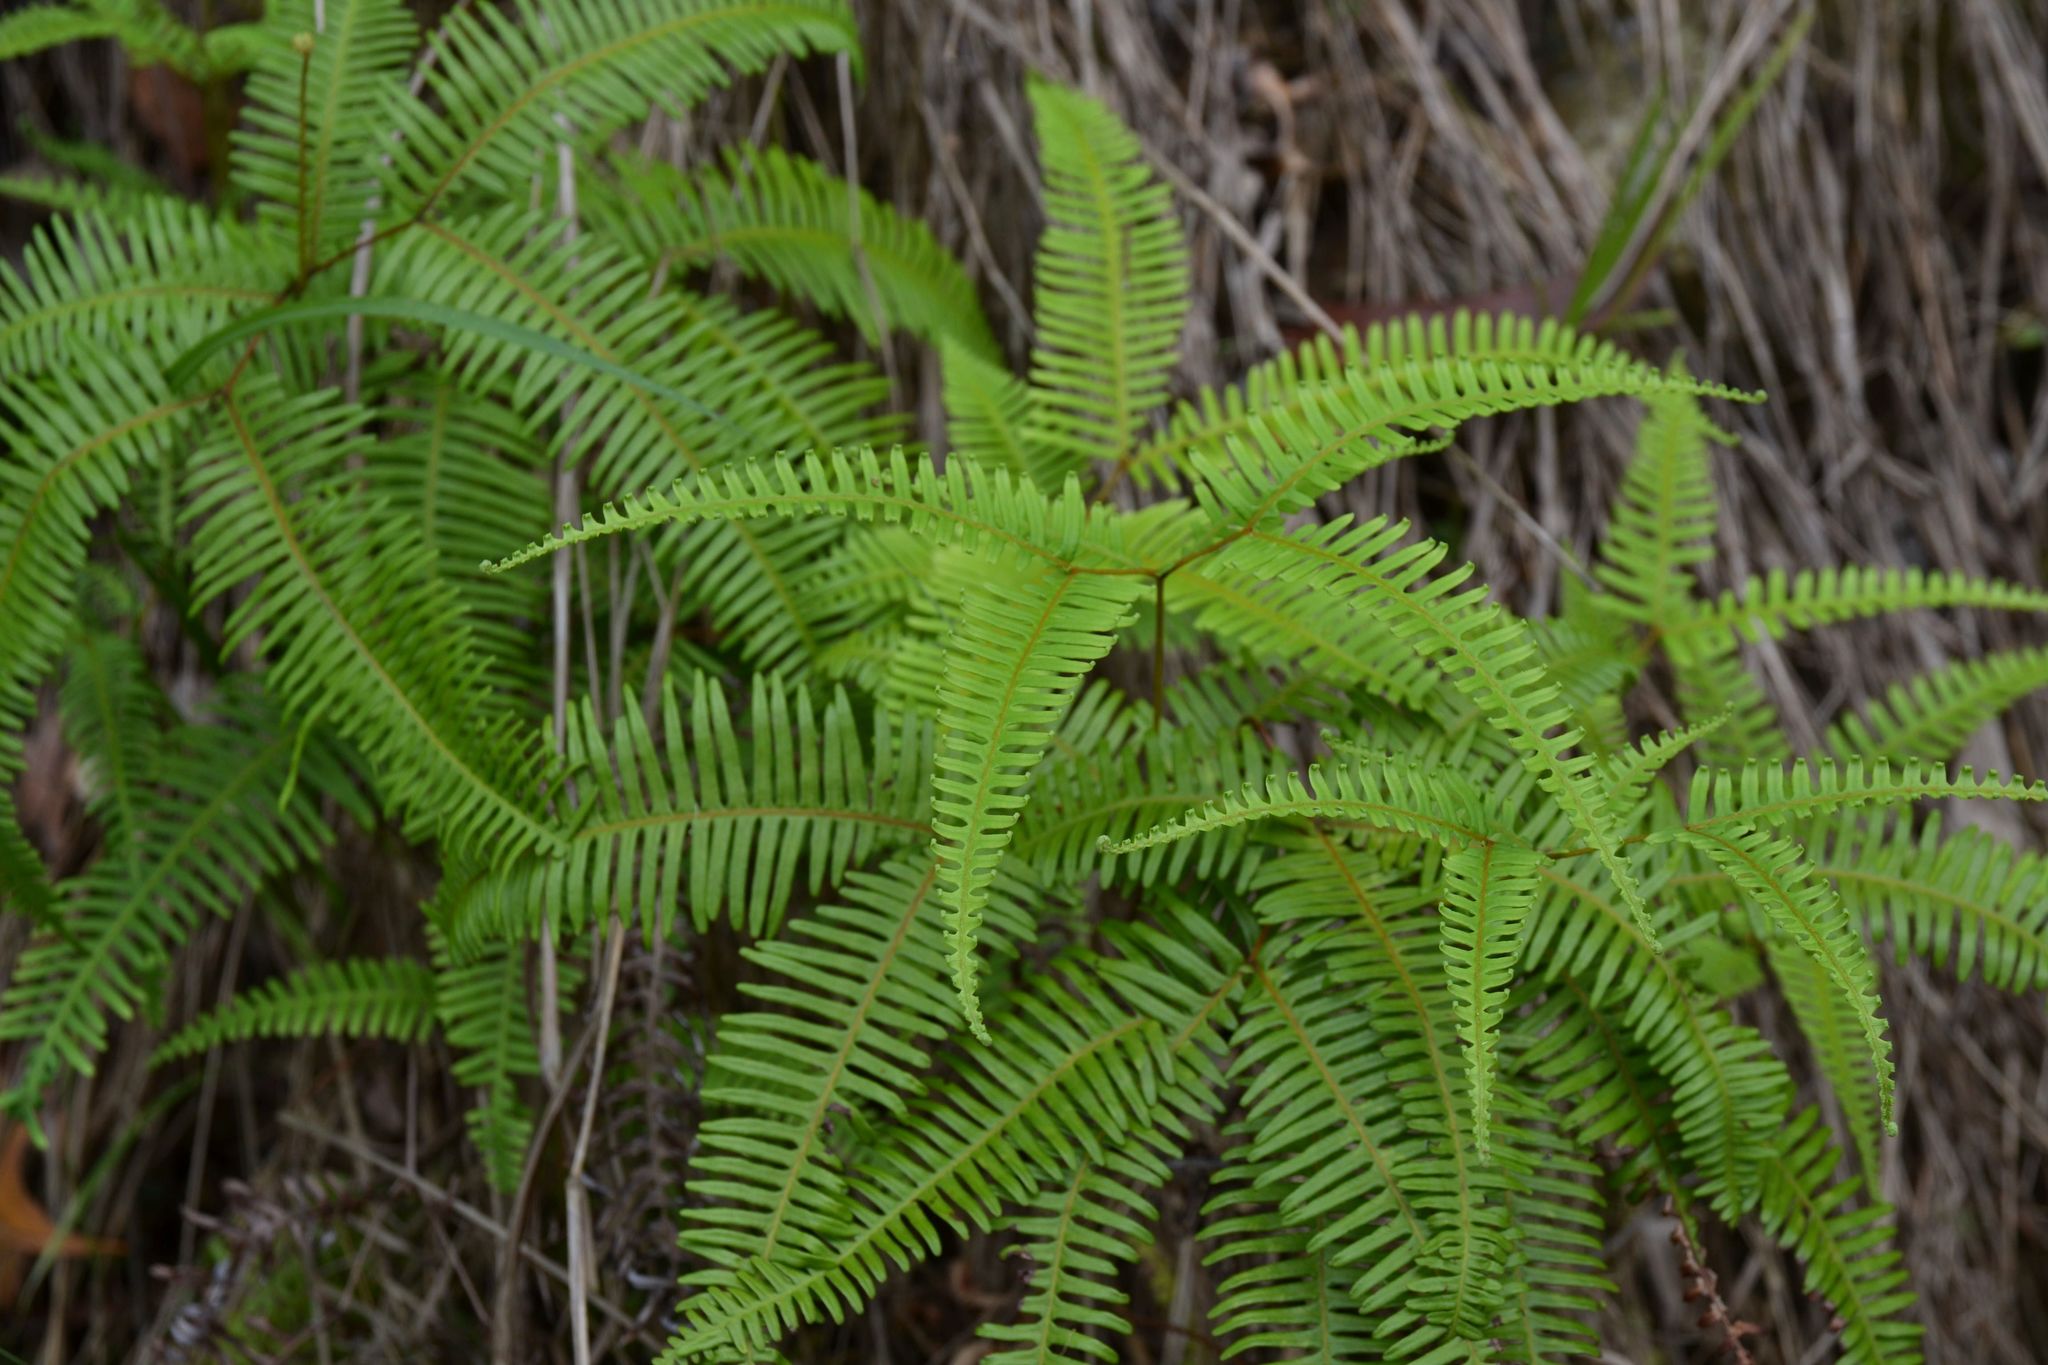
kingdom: Plantae
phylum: Tracheophyta
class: Polypodiopsida
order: Gleicheniales
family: Gleicheniaceae
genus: Dicranopteris
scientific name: Dicranopteris pedata
